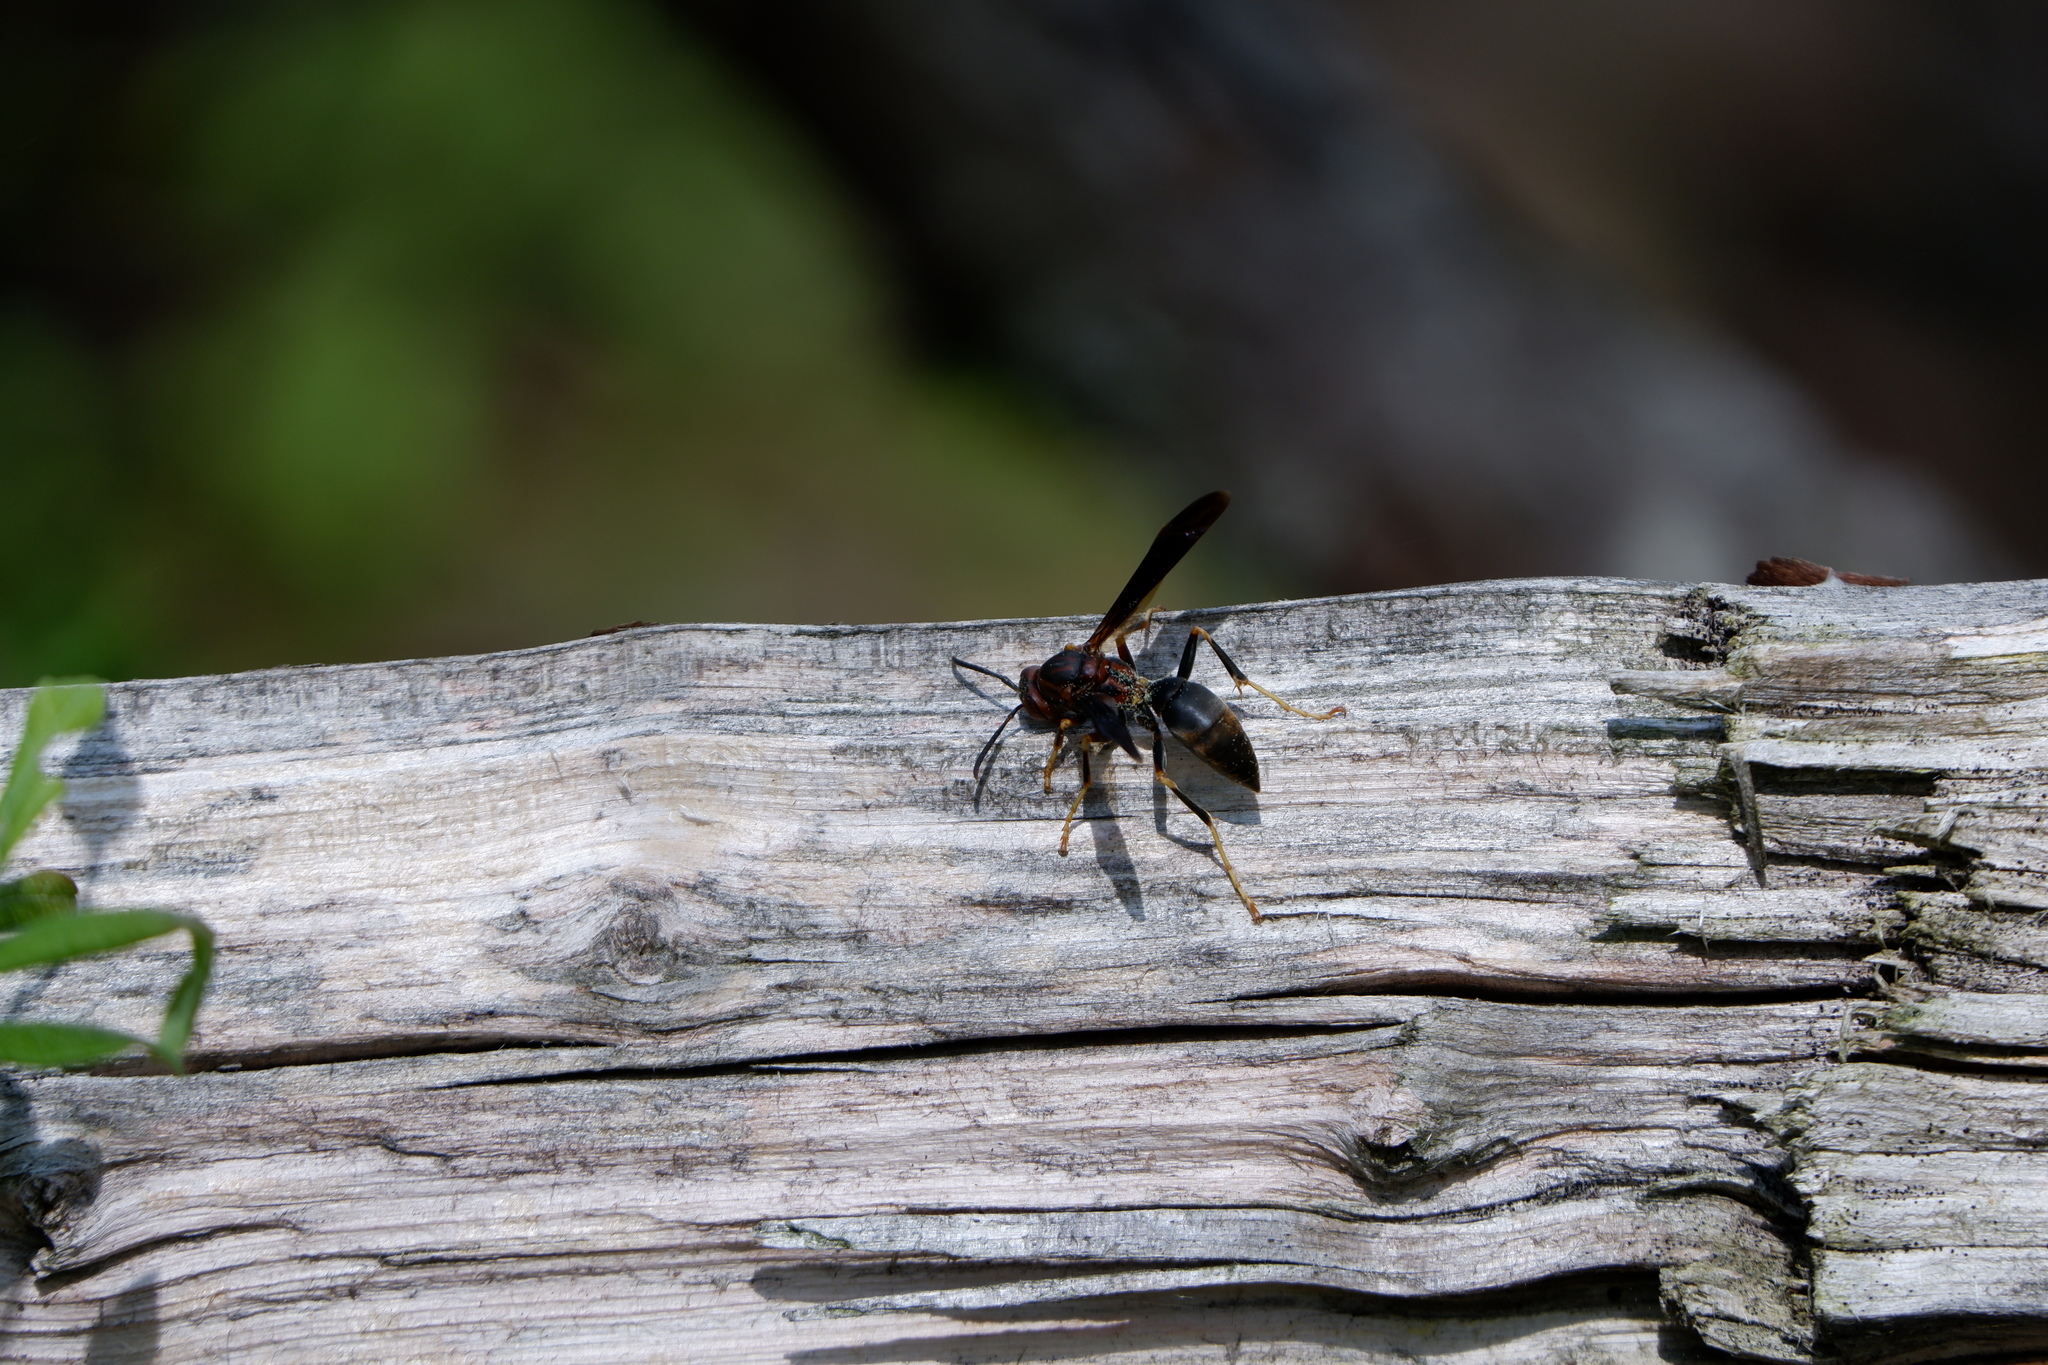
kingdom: Animalia
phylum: Arthropoda
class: Insecta
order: Hymenoptera
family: Eumenidae
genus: Polistes
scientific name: Polistes metricus
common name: Metric paper wasp
